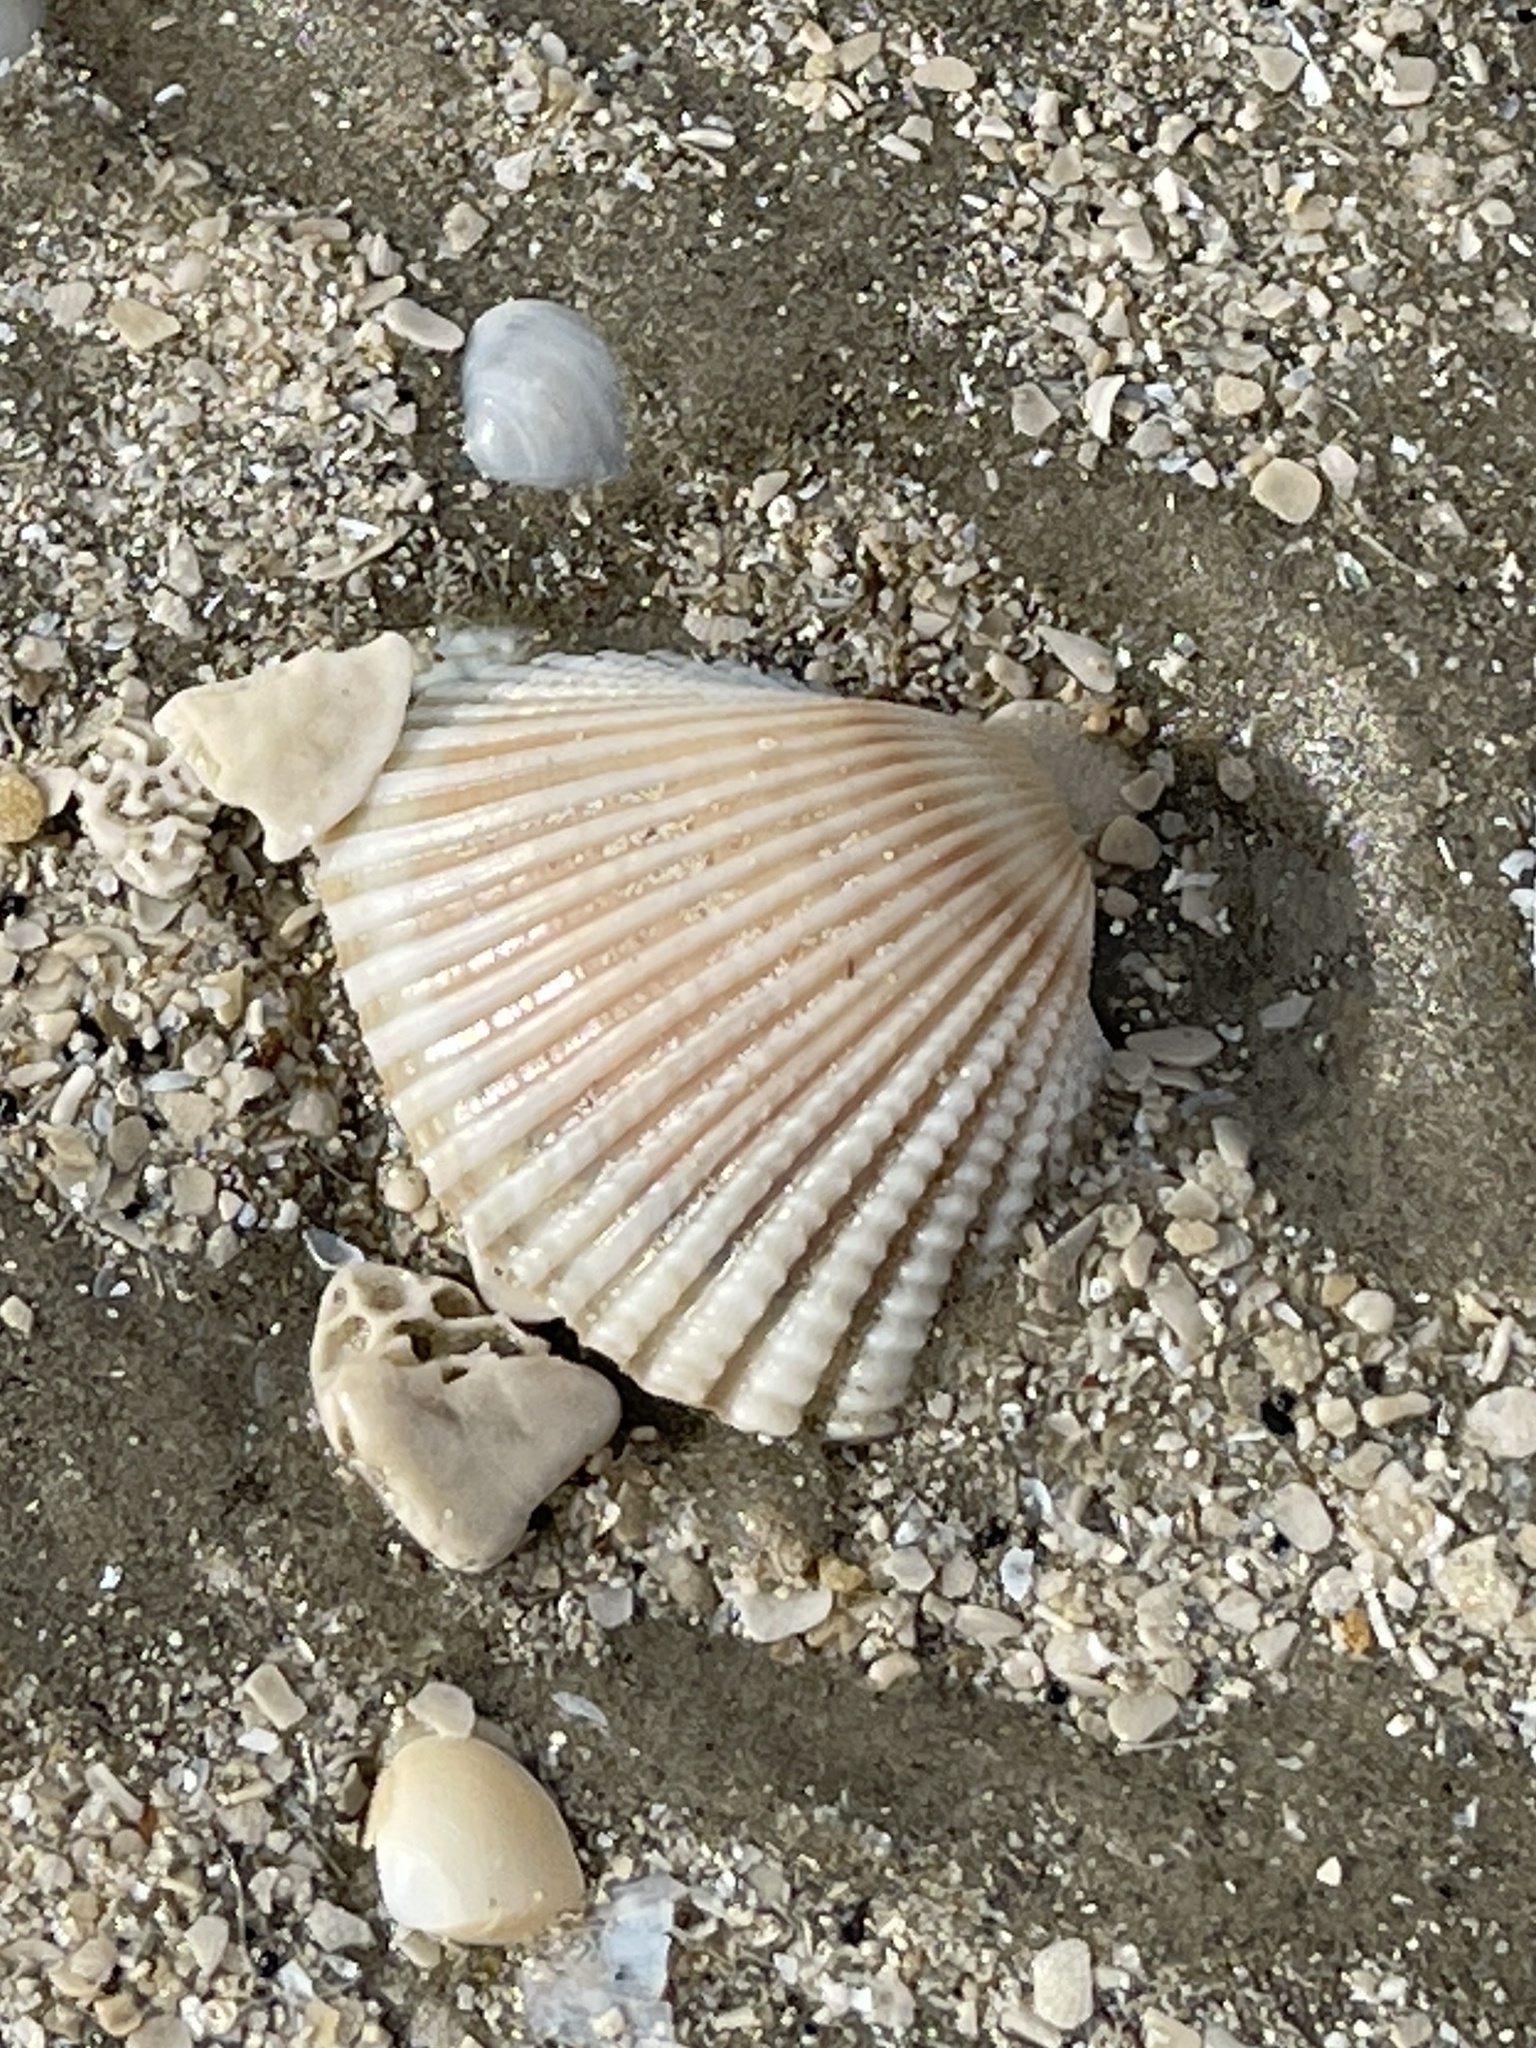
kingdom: Animalia
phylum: Mollusca
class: Bivalvia
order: Arcida
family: Arcidae
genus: Anadara
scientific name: Anadara brasiliana
